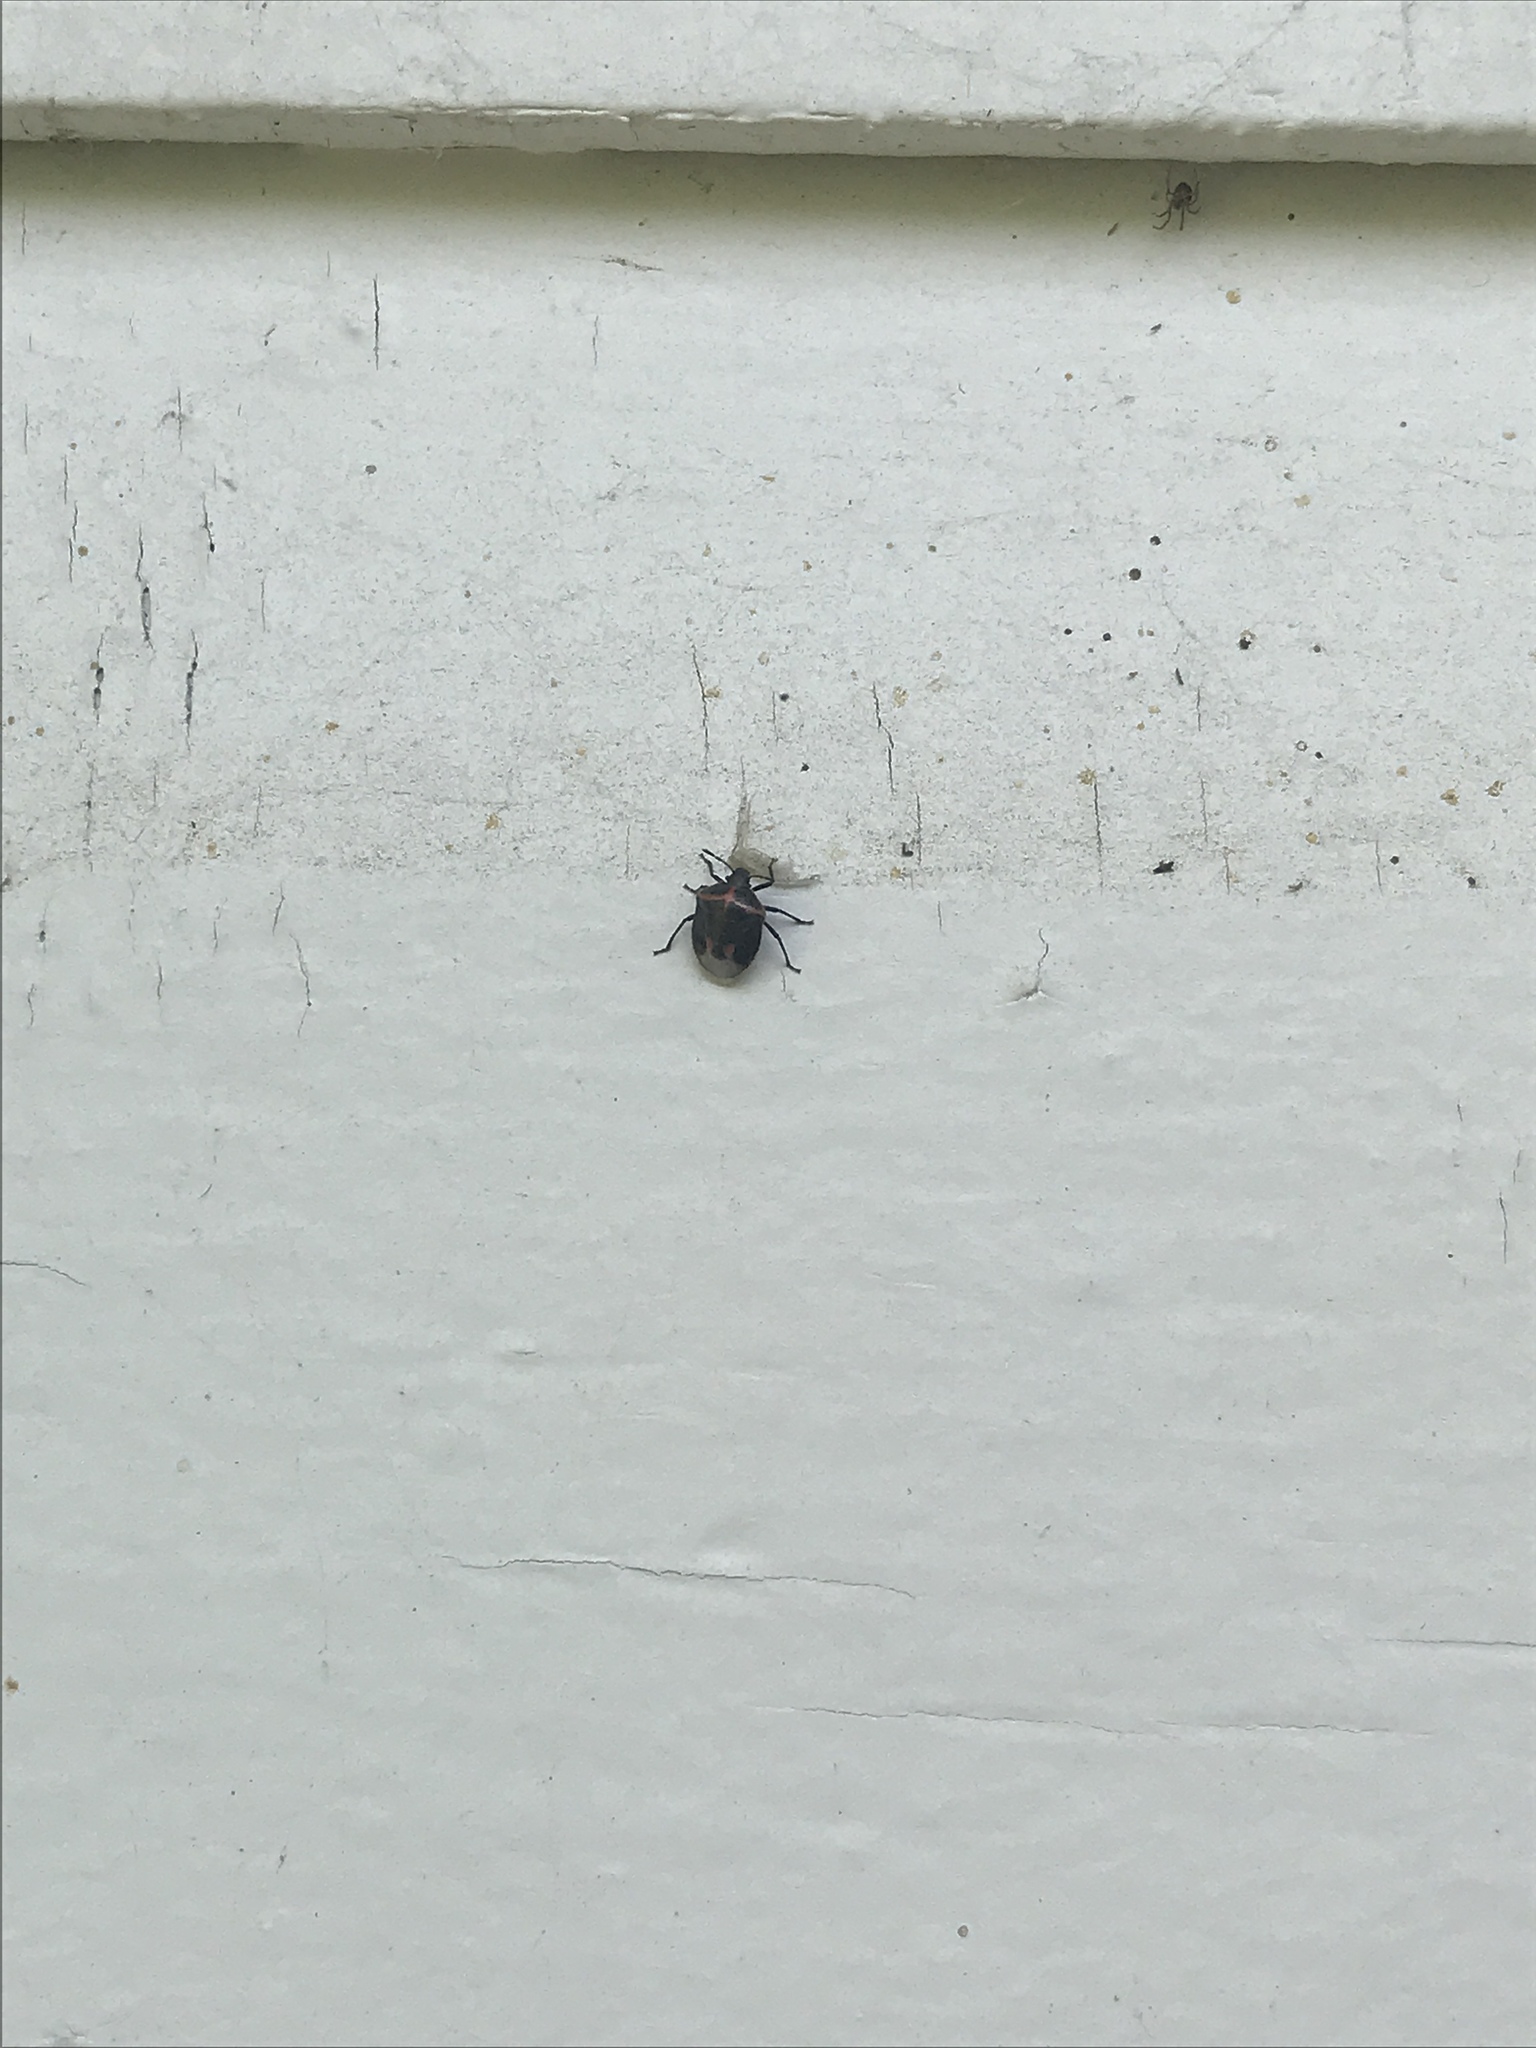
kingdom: Animalia
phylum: Arthropoda
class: Insecta
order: Hemiptera
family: Pentatomidae
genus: Cosmopepla
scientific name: Cosmopepla lintneriana
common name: Twice-stabbed stink bug
